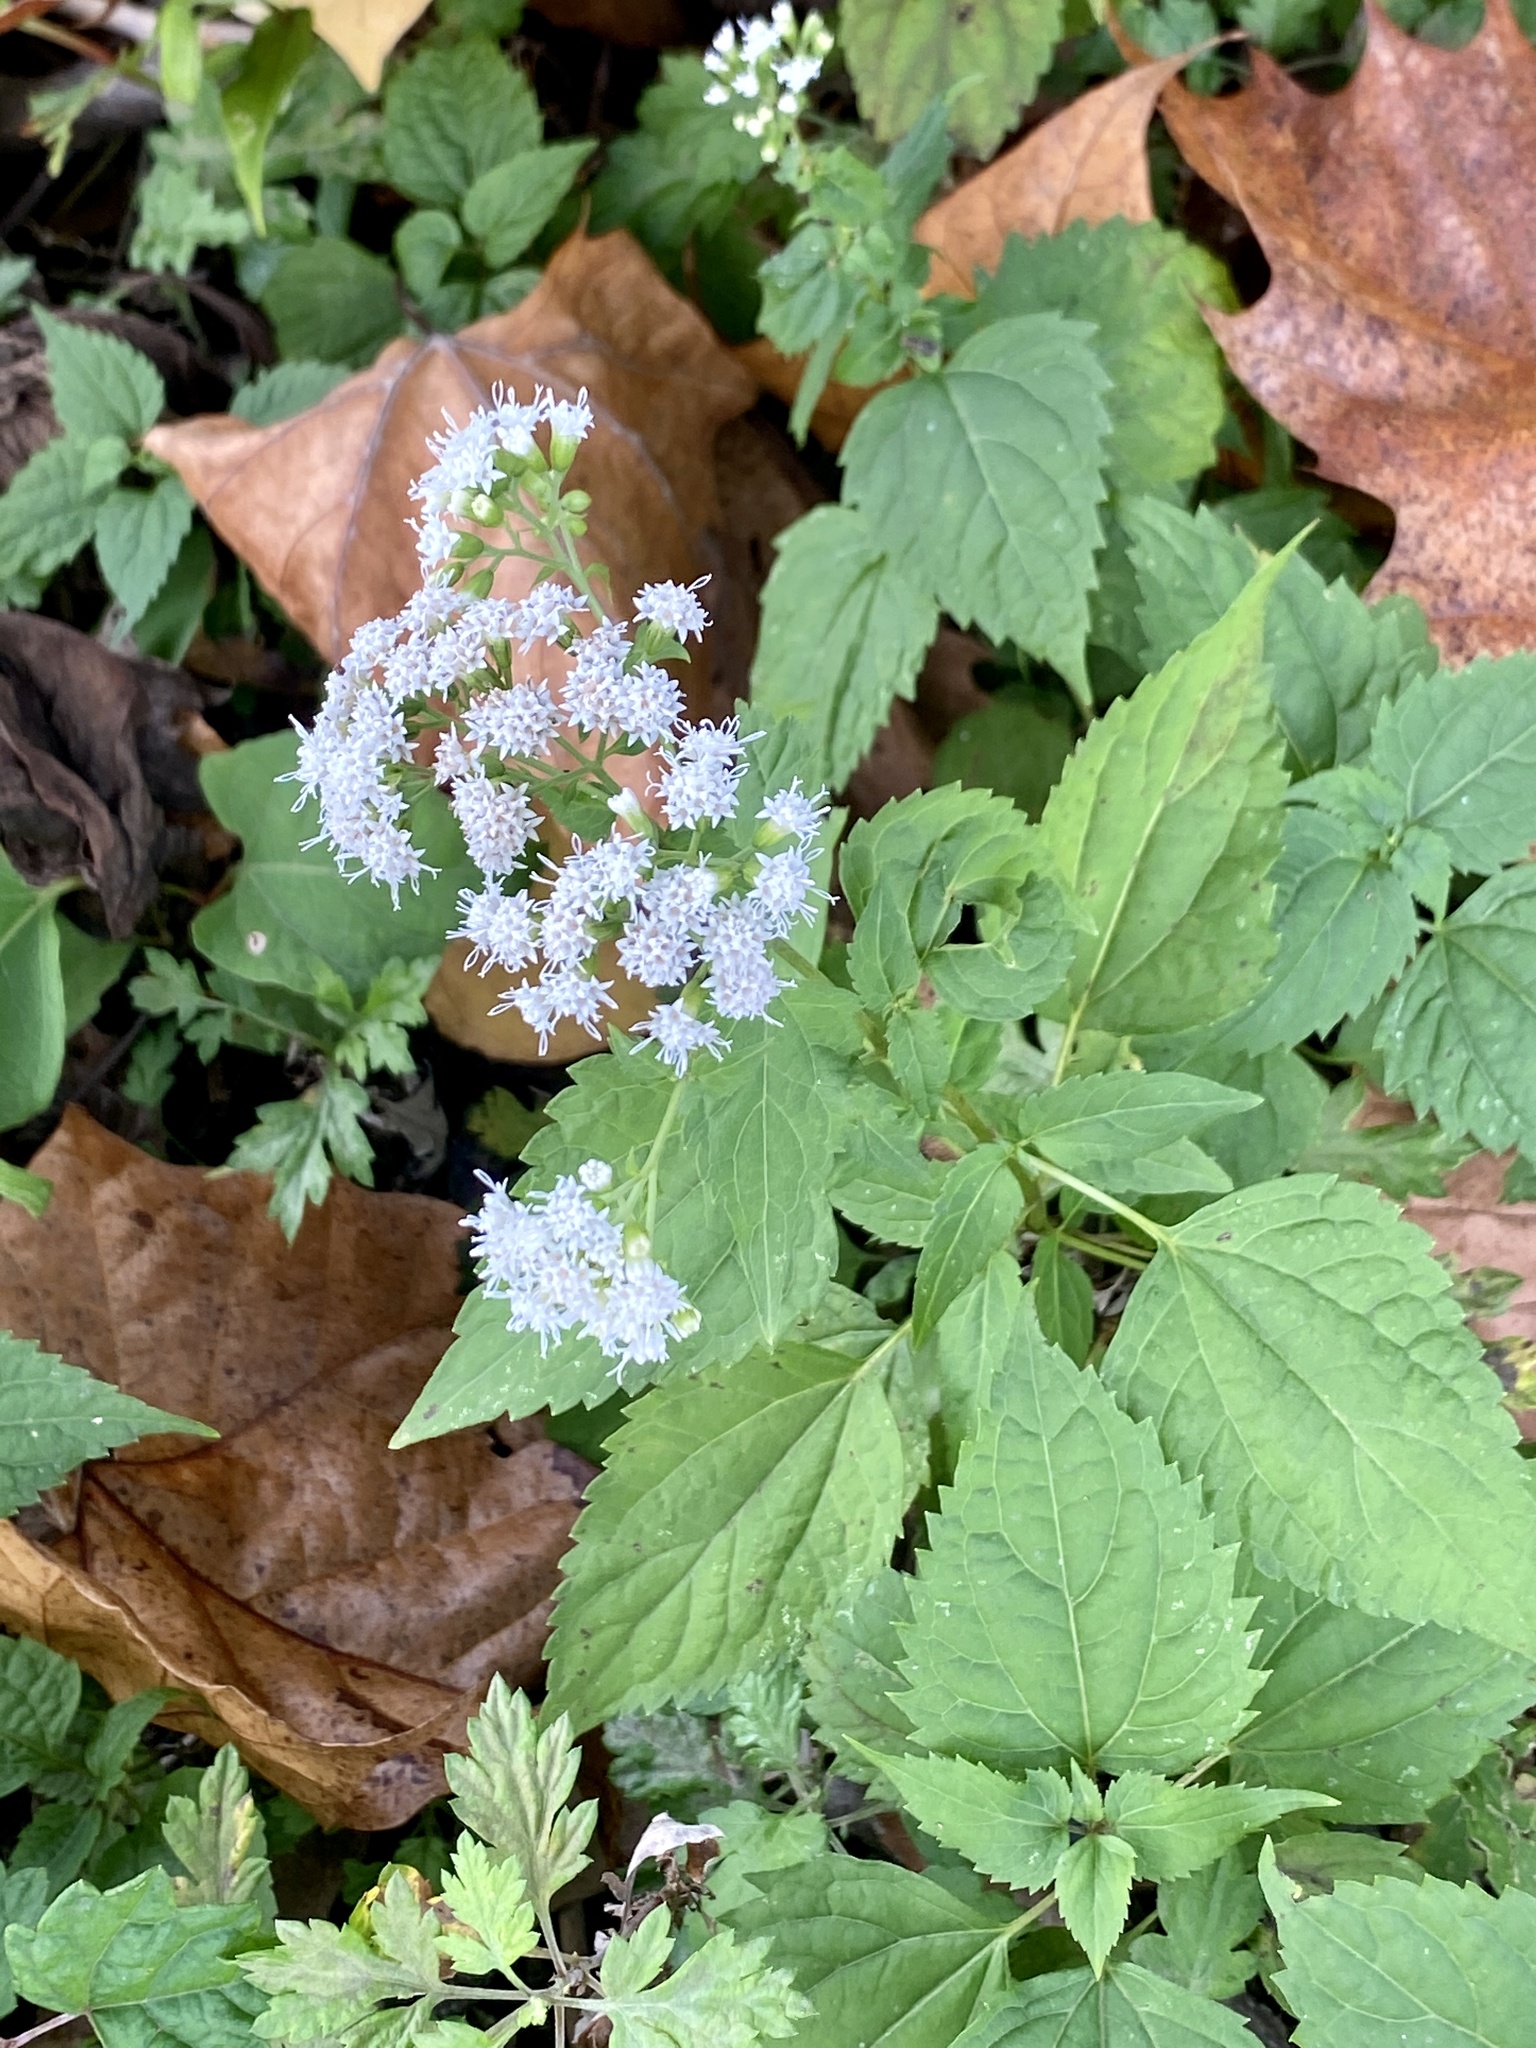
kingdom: Plantae
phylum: Tracheophyta
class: Magnoliopsida
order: Asterales
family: Asteraceae
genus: Ageratina
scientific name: Ageratina altissima
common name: White snakeroot
